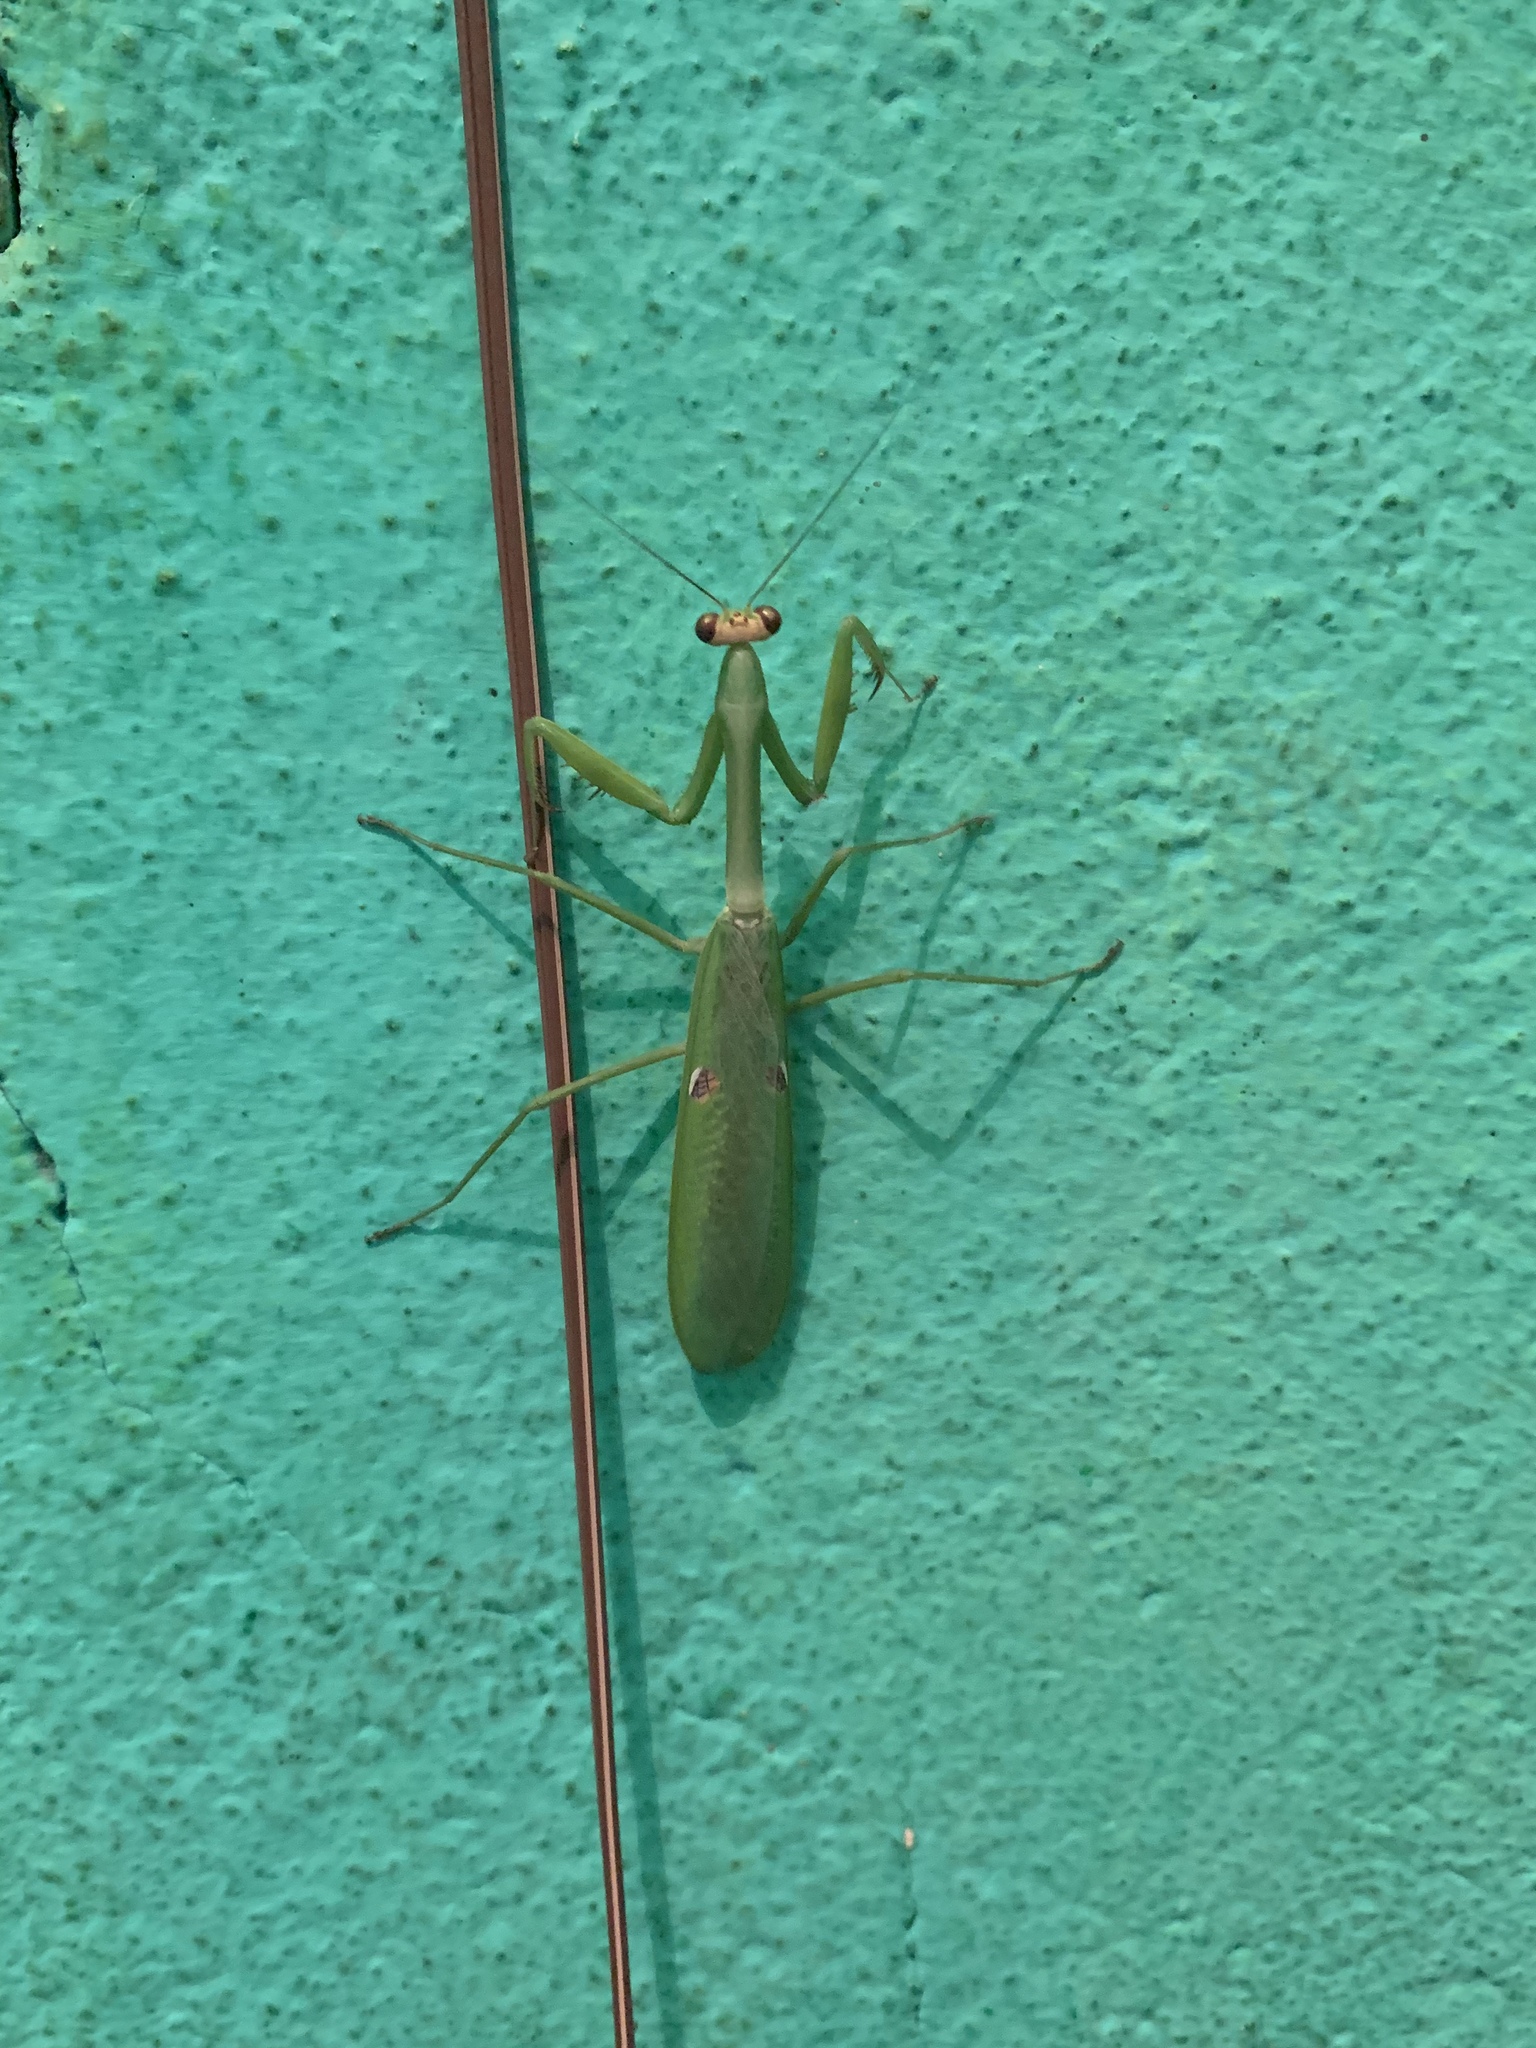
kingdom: Animalia
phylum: Arthropoda
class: Insecta
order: Mantodea
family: Mantidae
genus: Stagmatoptera
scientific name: Stagmatoptera praecaria
